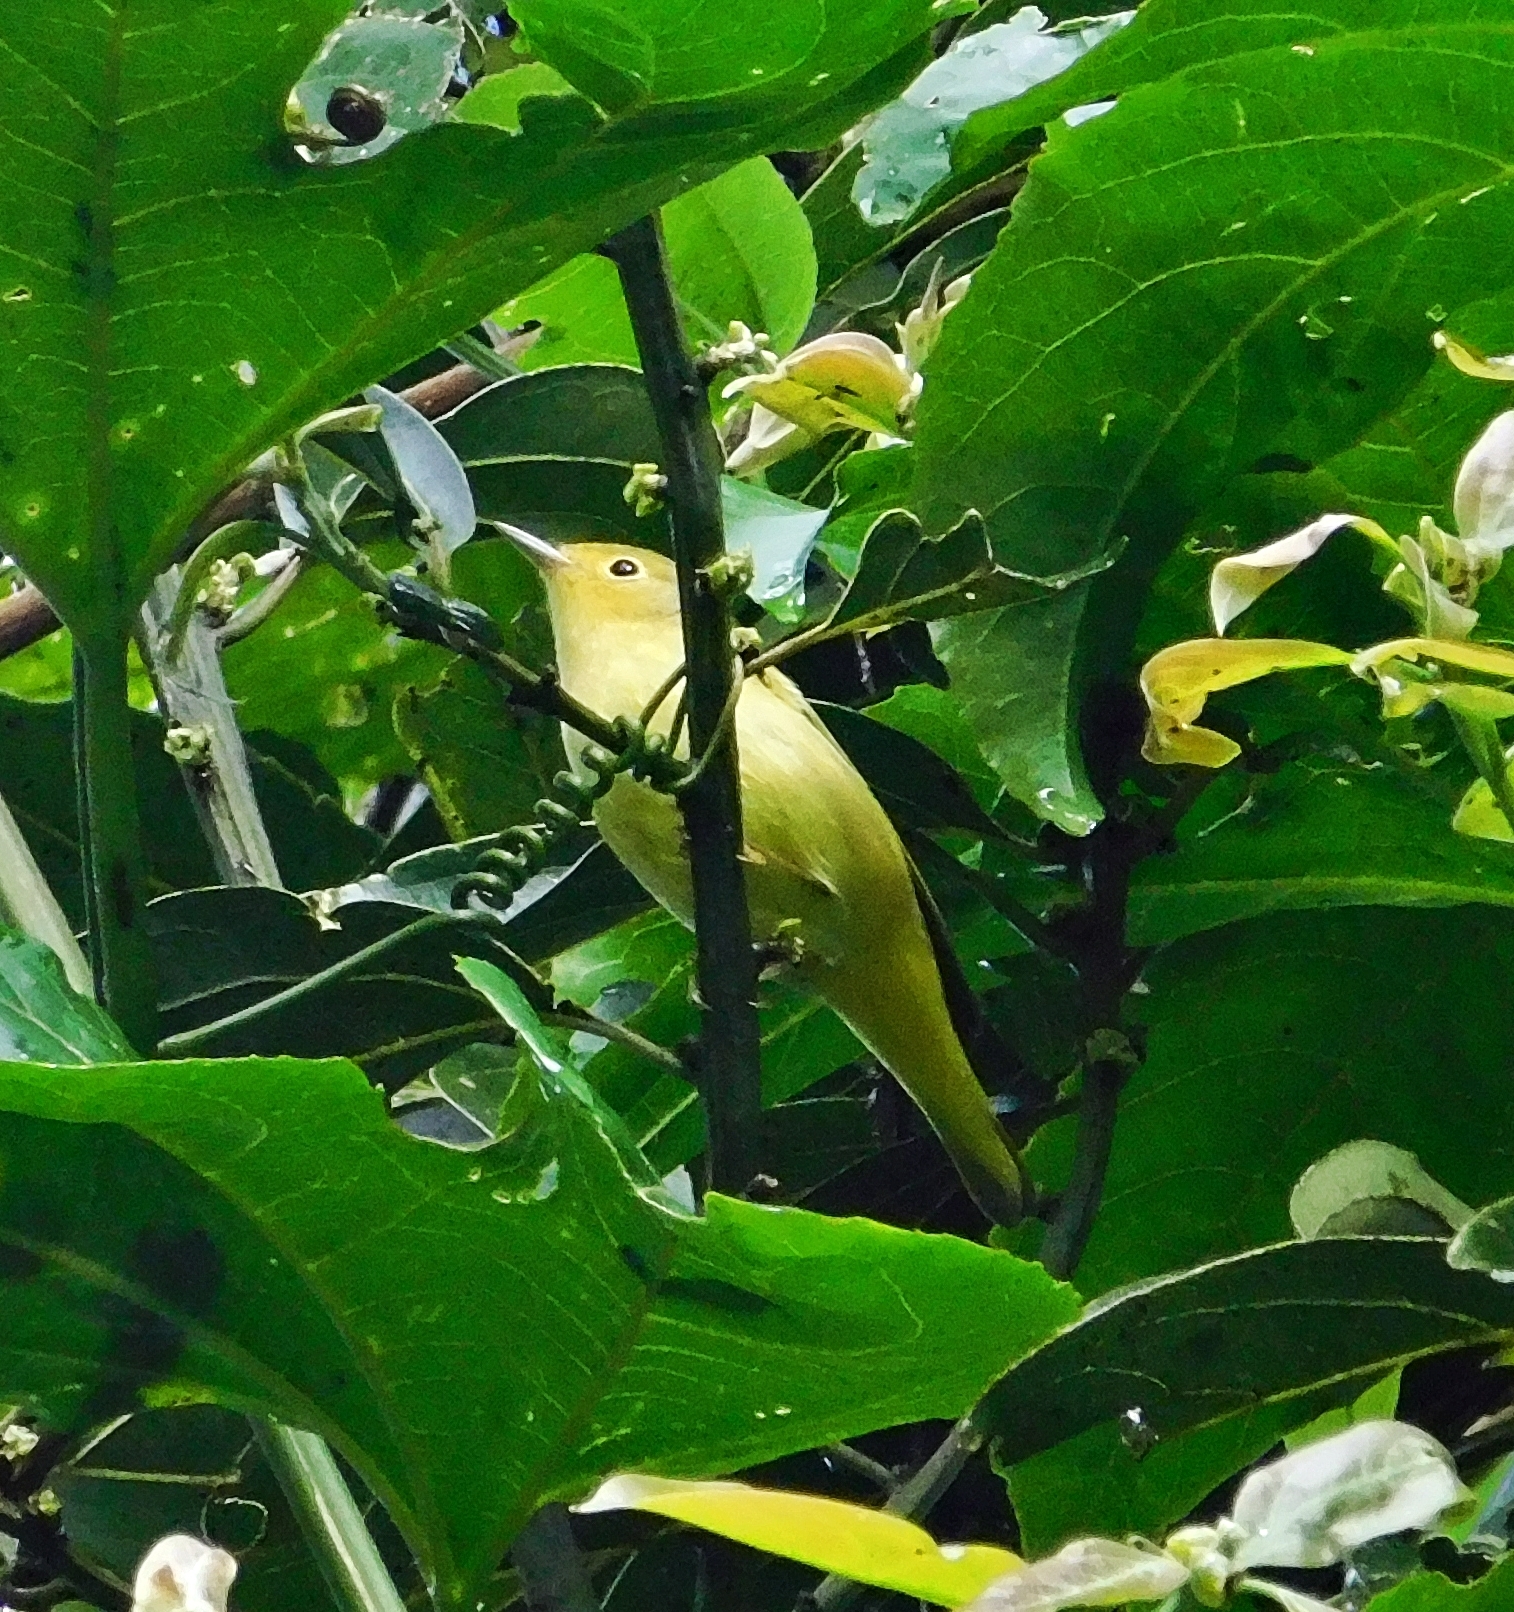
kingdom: Animalia
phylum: Chordata
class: Aves
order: Passeriformes
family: Parulidae
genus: Setophaga
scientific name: Setophaga petechia
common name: Yellow warbler
